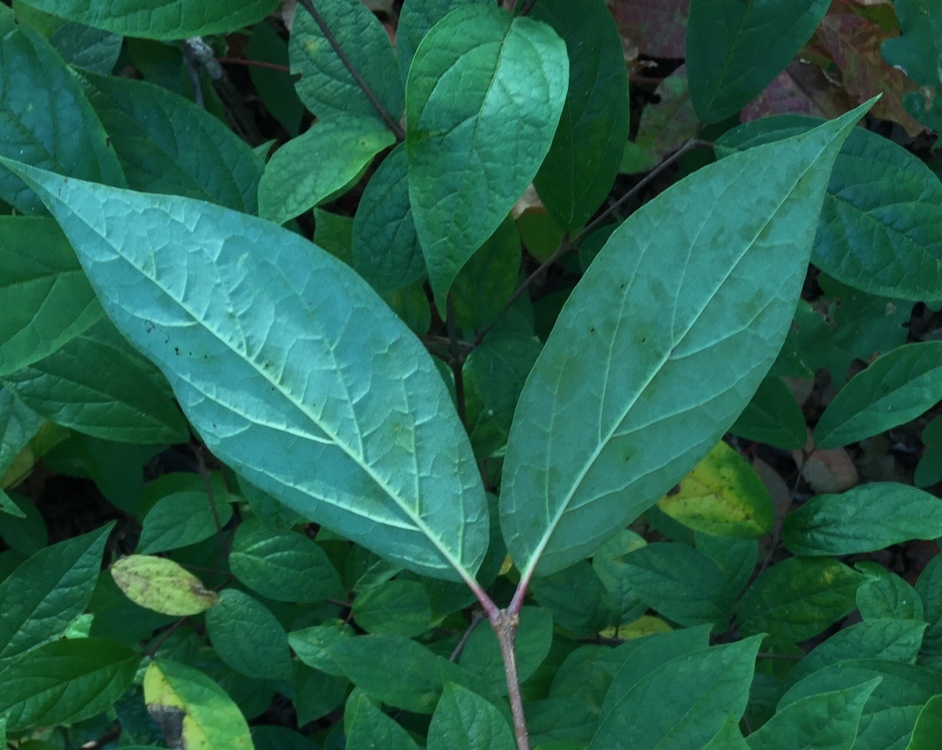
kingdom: Plantae
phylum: Tracheophyta
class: Magnoliopsida
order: Laurales
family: Calycanthaceae
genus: Calycanthus
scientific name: Calycanthus floridus
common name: Carolina-allspice
